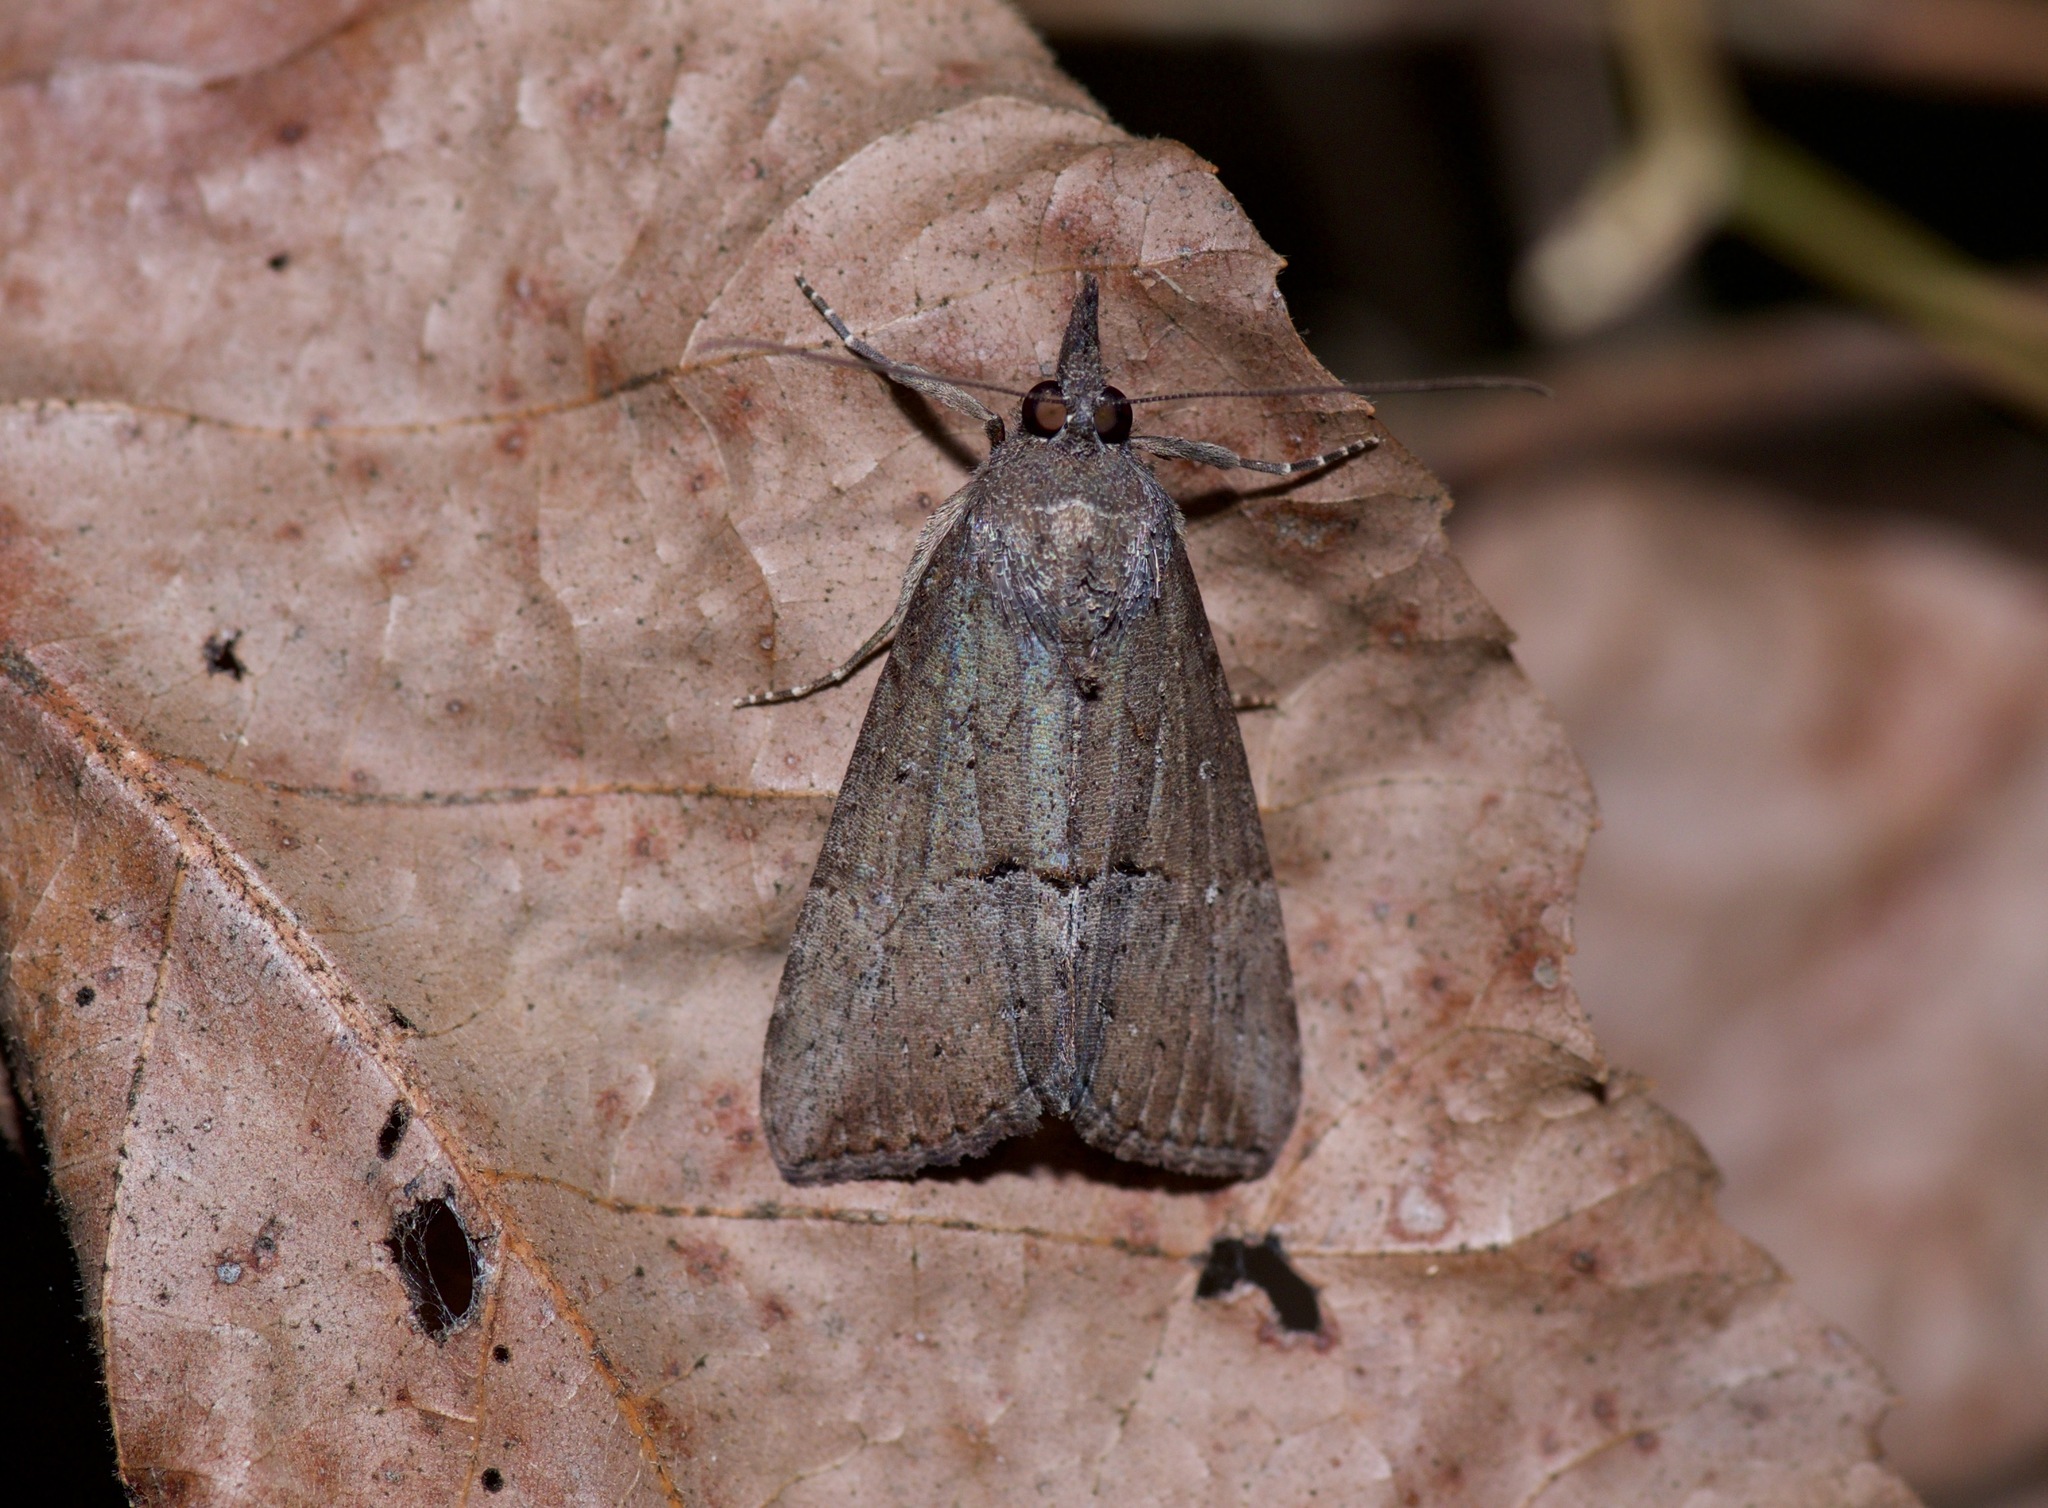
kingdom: Animalia
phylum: Arthropoda
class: Insecta
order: Lepidoptera
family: Erebidae
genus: Hypena
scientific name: Hypena scabra
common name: Green cloverworm
